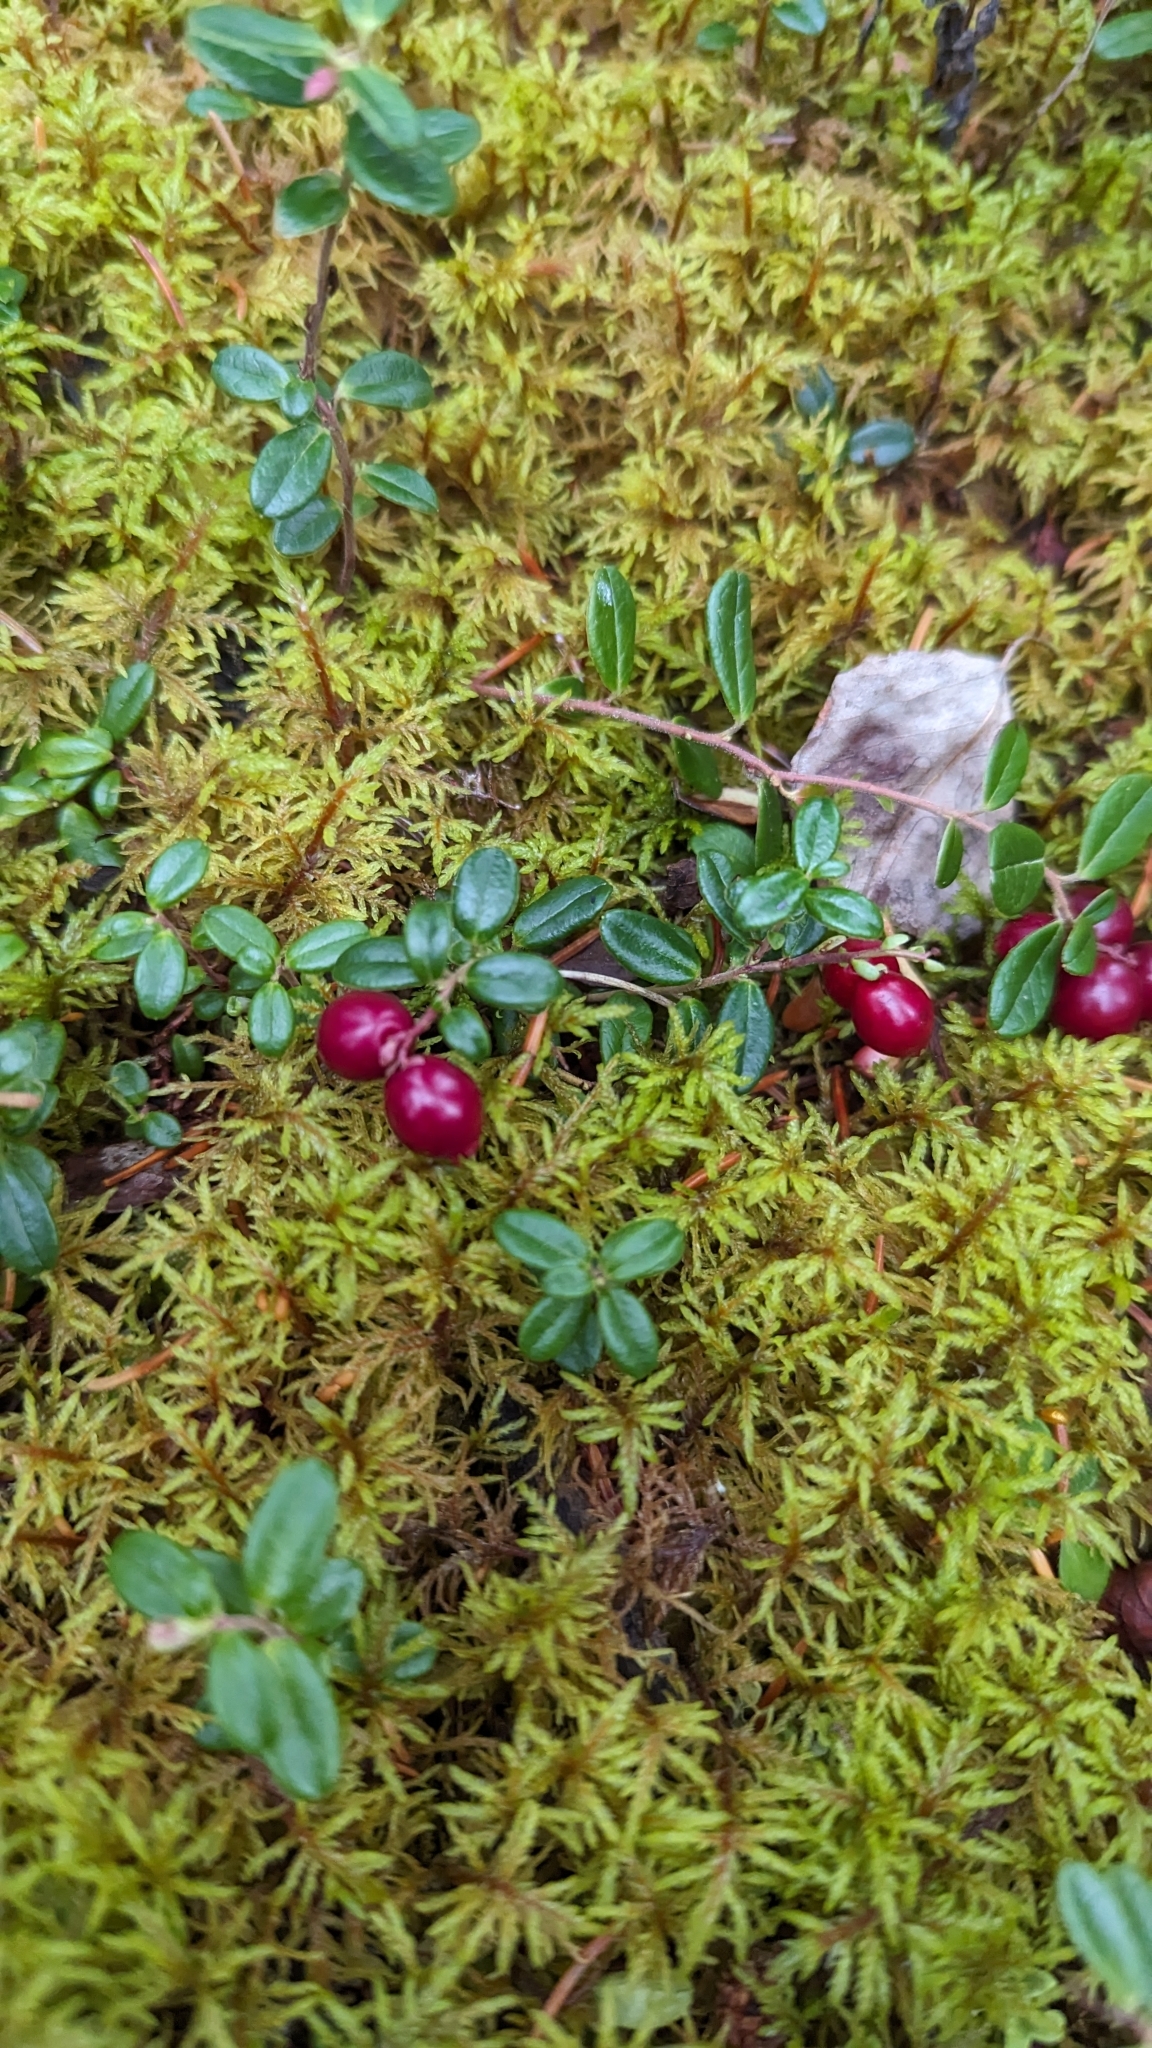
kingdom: Plantae
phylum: Tracheophyta
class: Magnoliopsida
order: Ericales
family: Ericaceae
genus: Vaccinium
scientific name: Vaccinium vitis-idaea
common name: Cowberry
